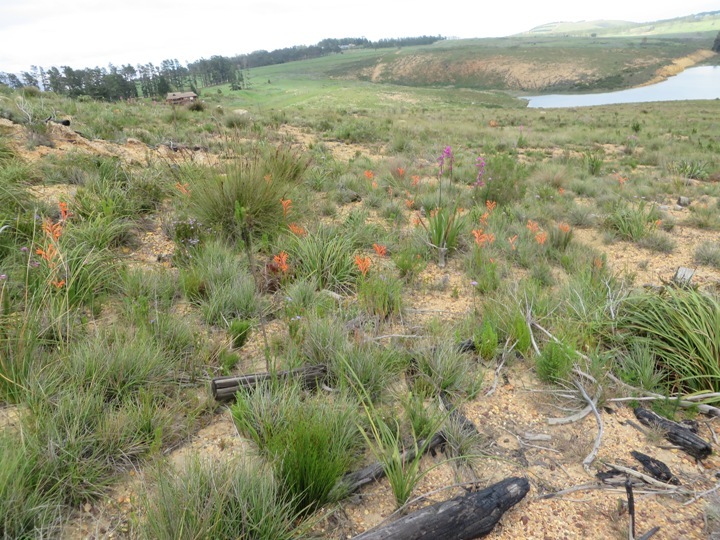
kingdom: Plantae
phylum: Tracheophyta
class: Liliopsida
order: Asparagales
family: Iridaceae
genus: Watsonia
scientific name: Watsonia meriana
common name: Bulbil bugle-lily
